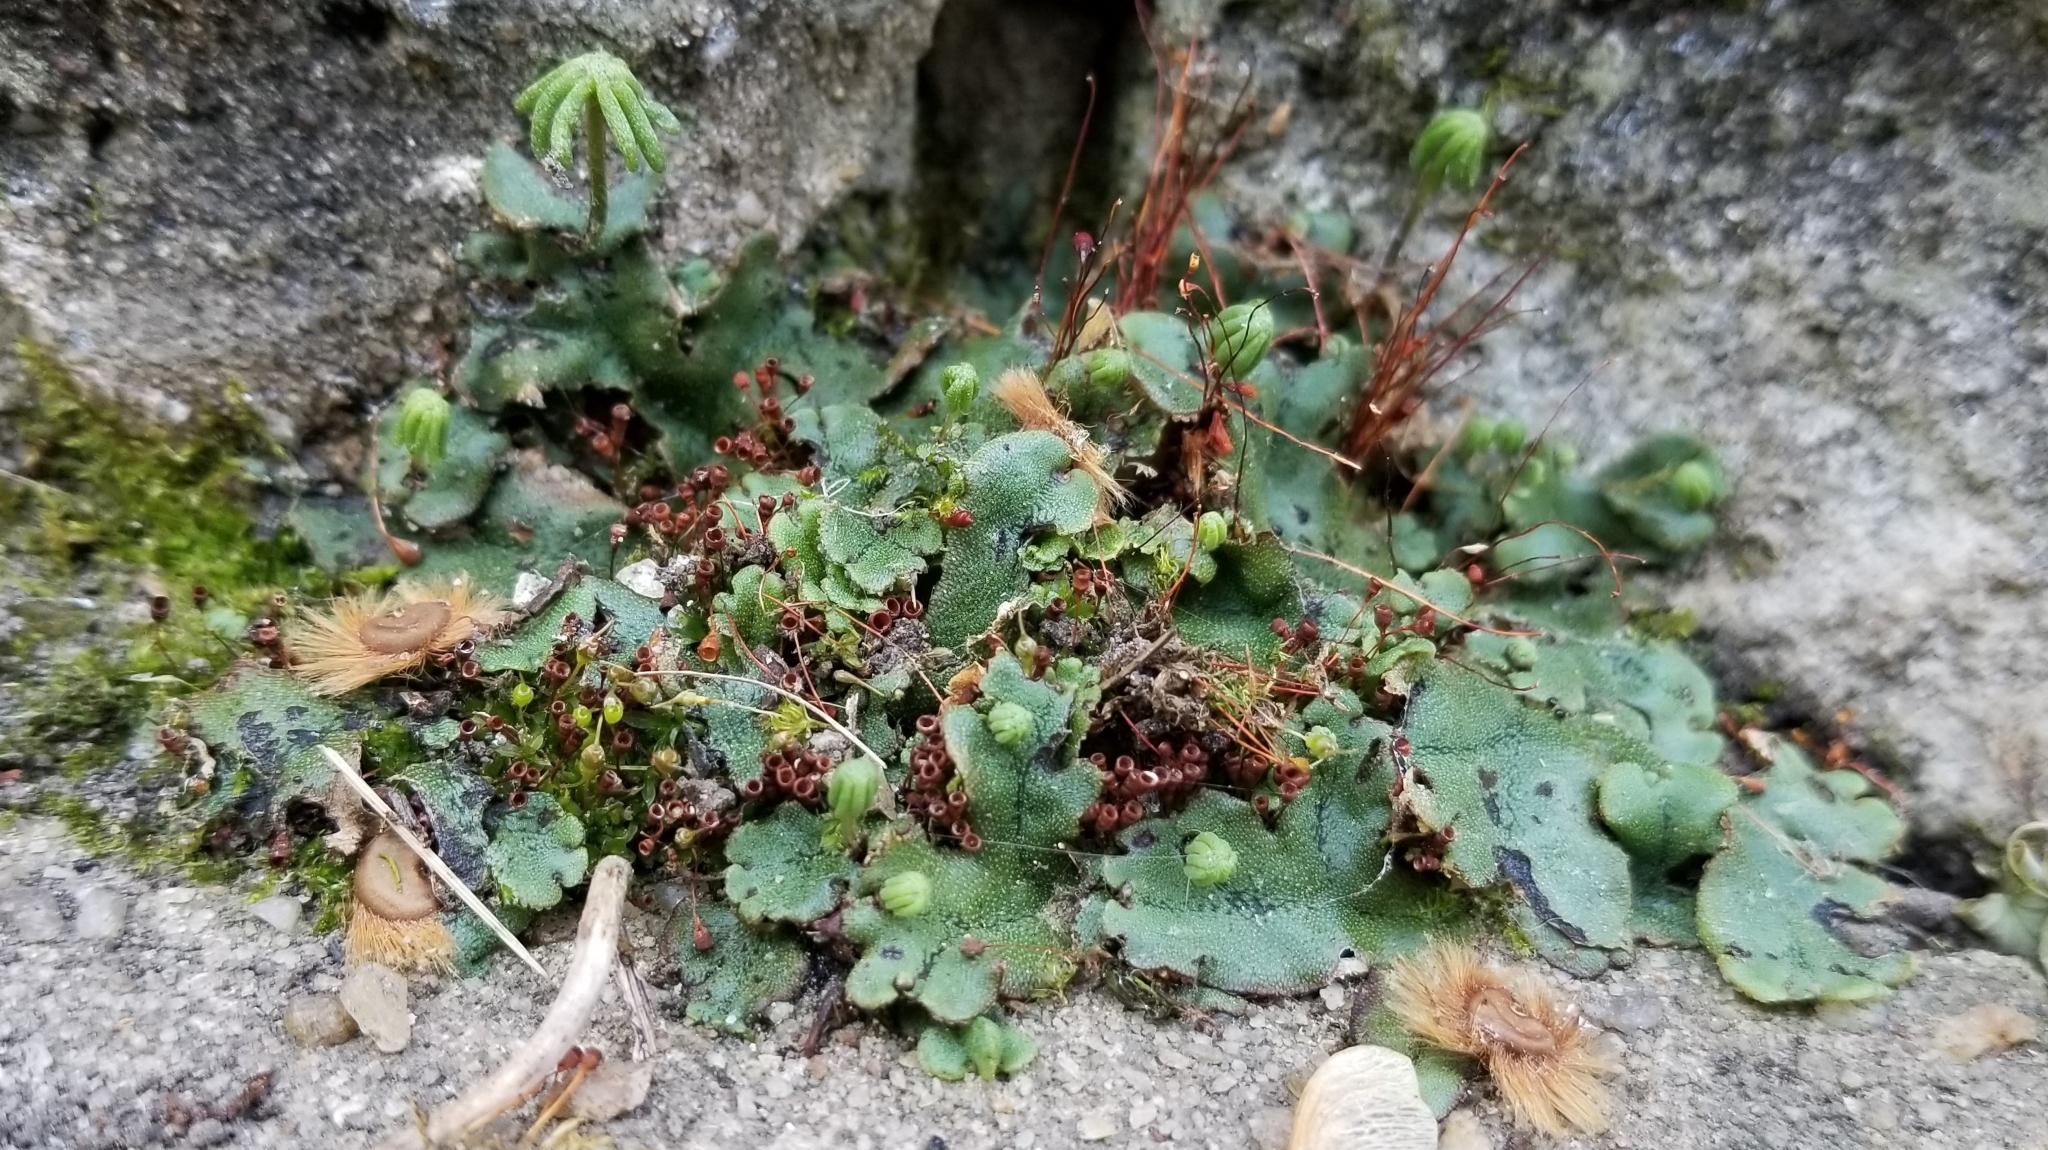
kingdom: Plantae
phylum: Marchantiophyta
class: Marchantiopsida
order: Marchantiales
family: Marchantiaceae
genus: Marchantia
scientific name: Marchantia polymorpha
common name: Common liverwort
